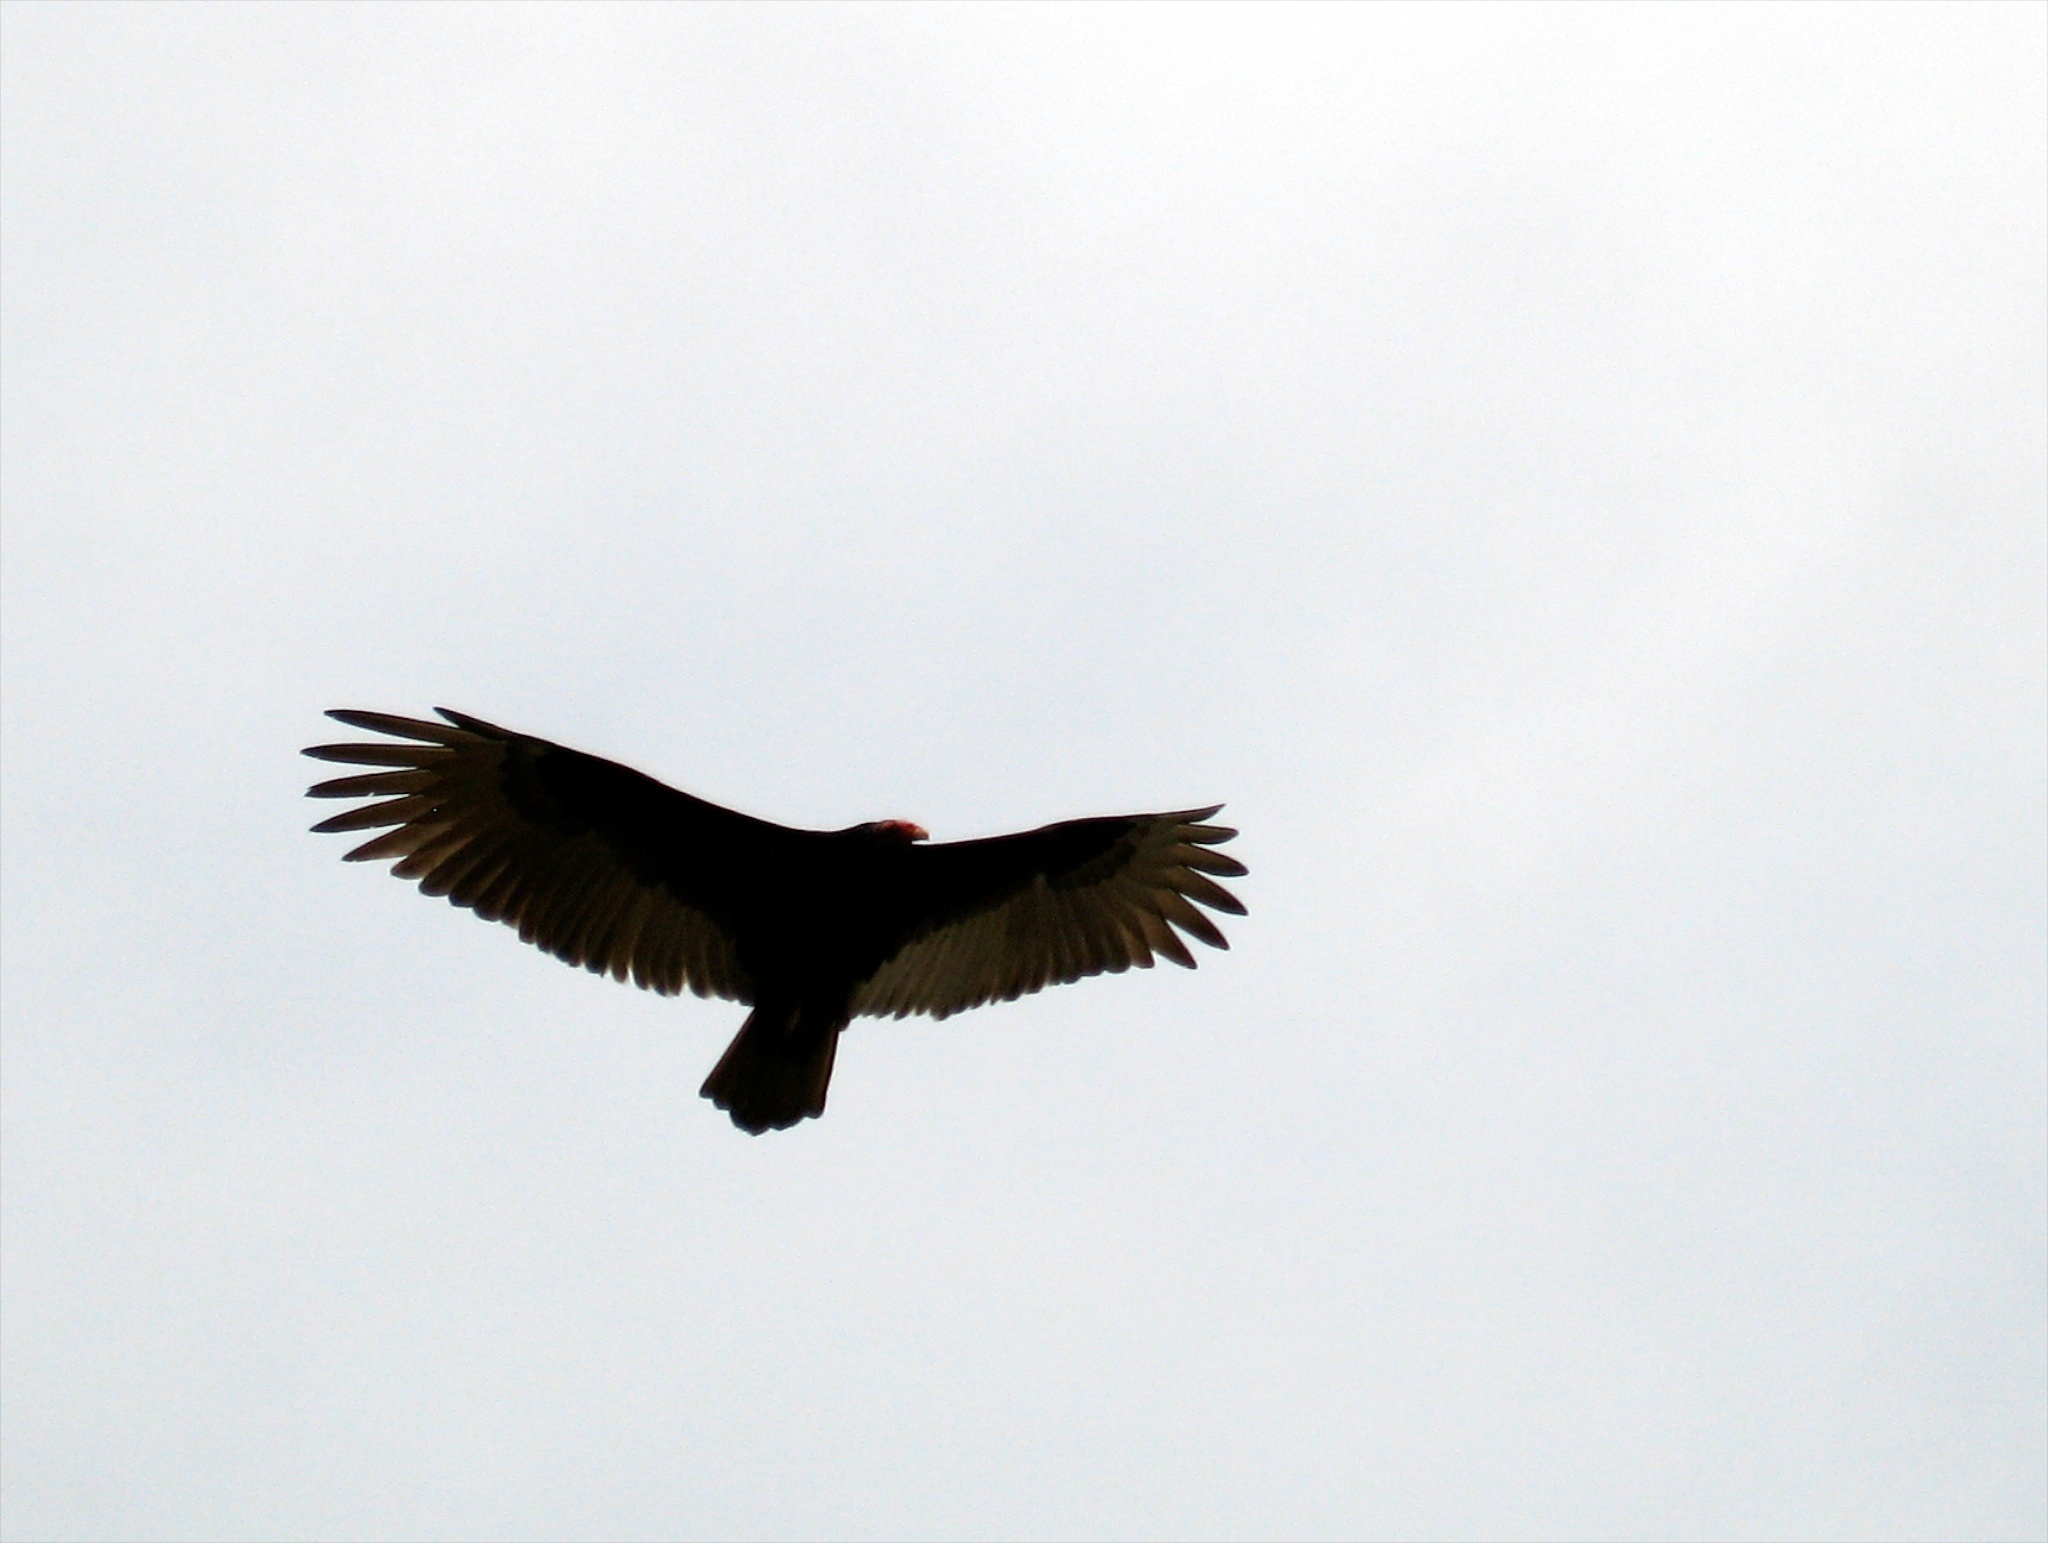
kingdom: Animalia
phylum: Chordata
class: Aves
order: Accipitriformes
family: Cathartidae
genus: Cathartes
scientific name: Cathartes aura
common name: Turkey vulture
